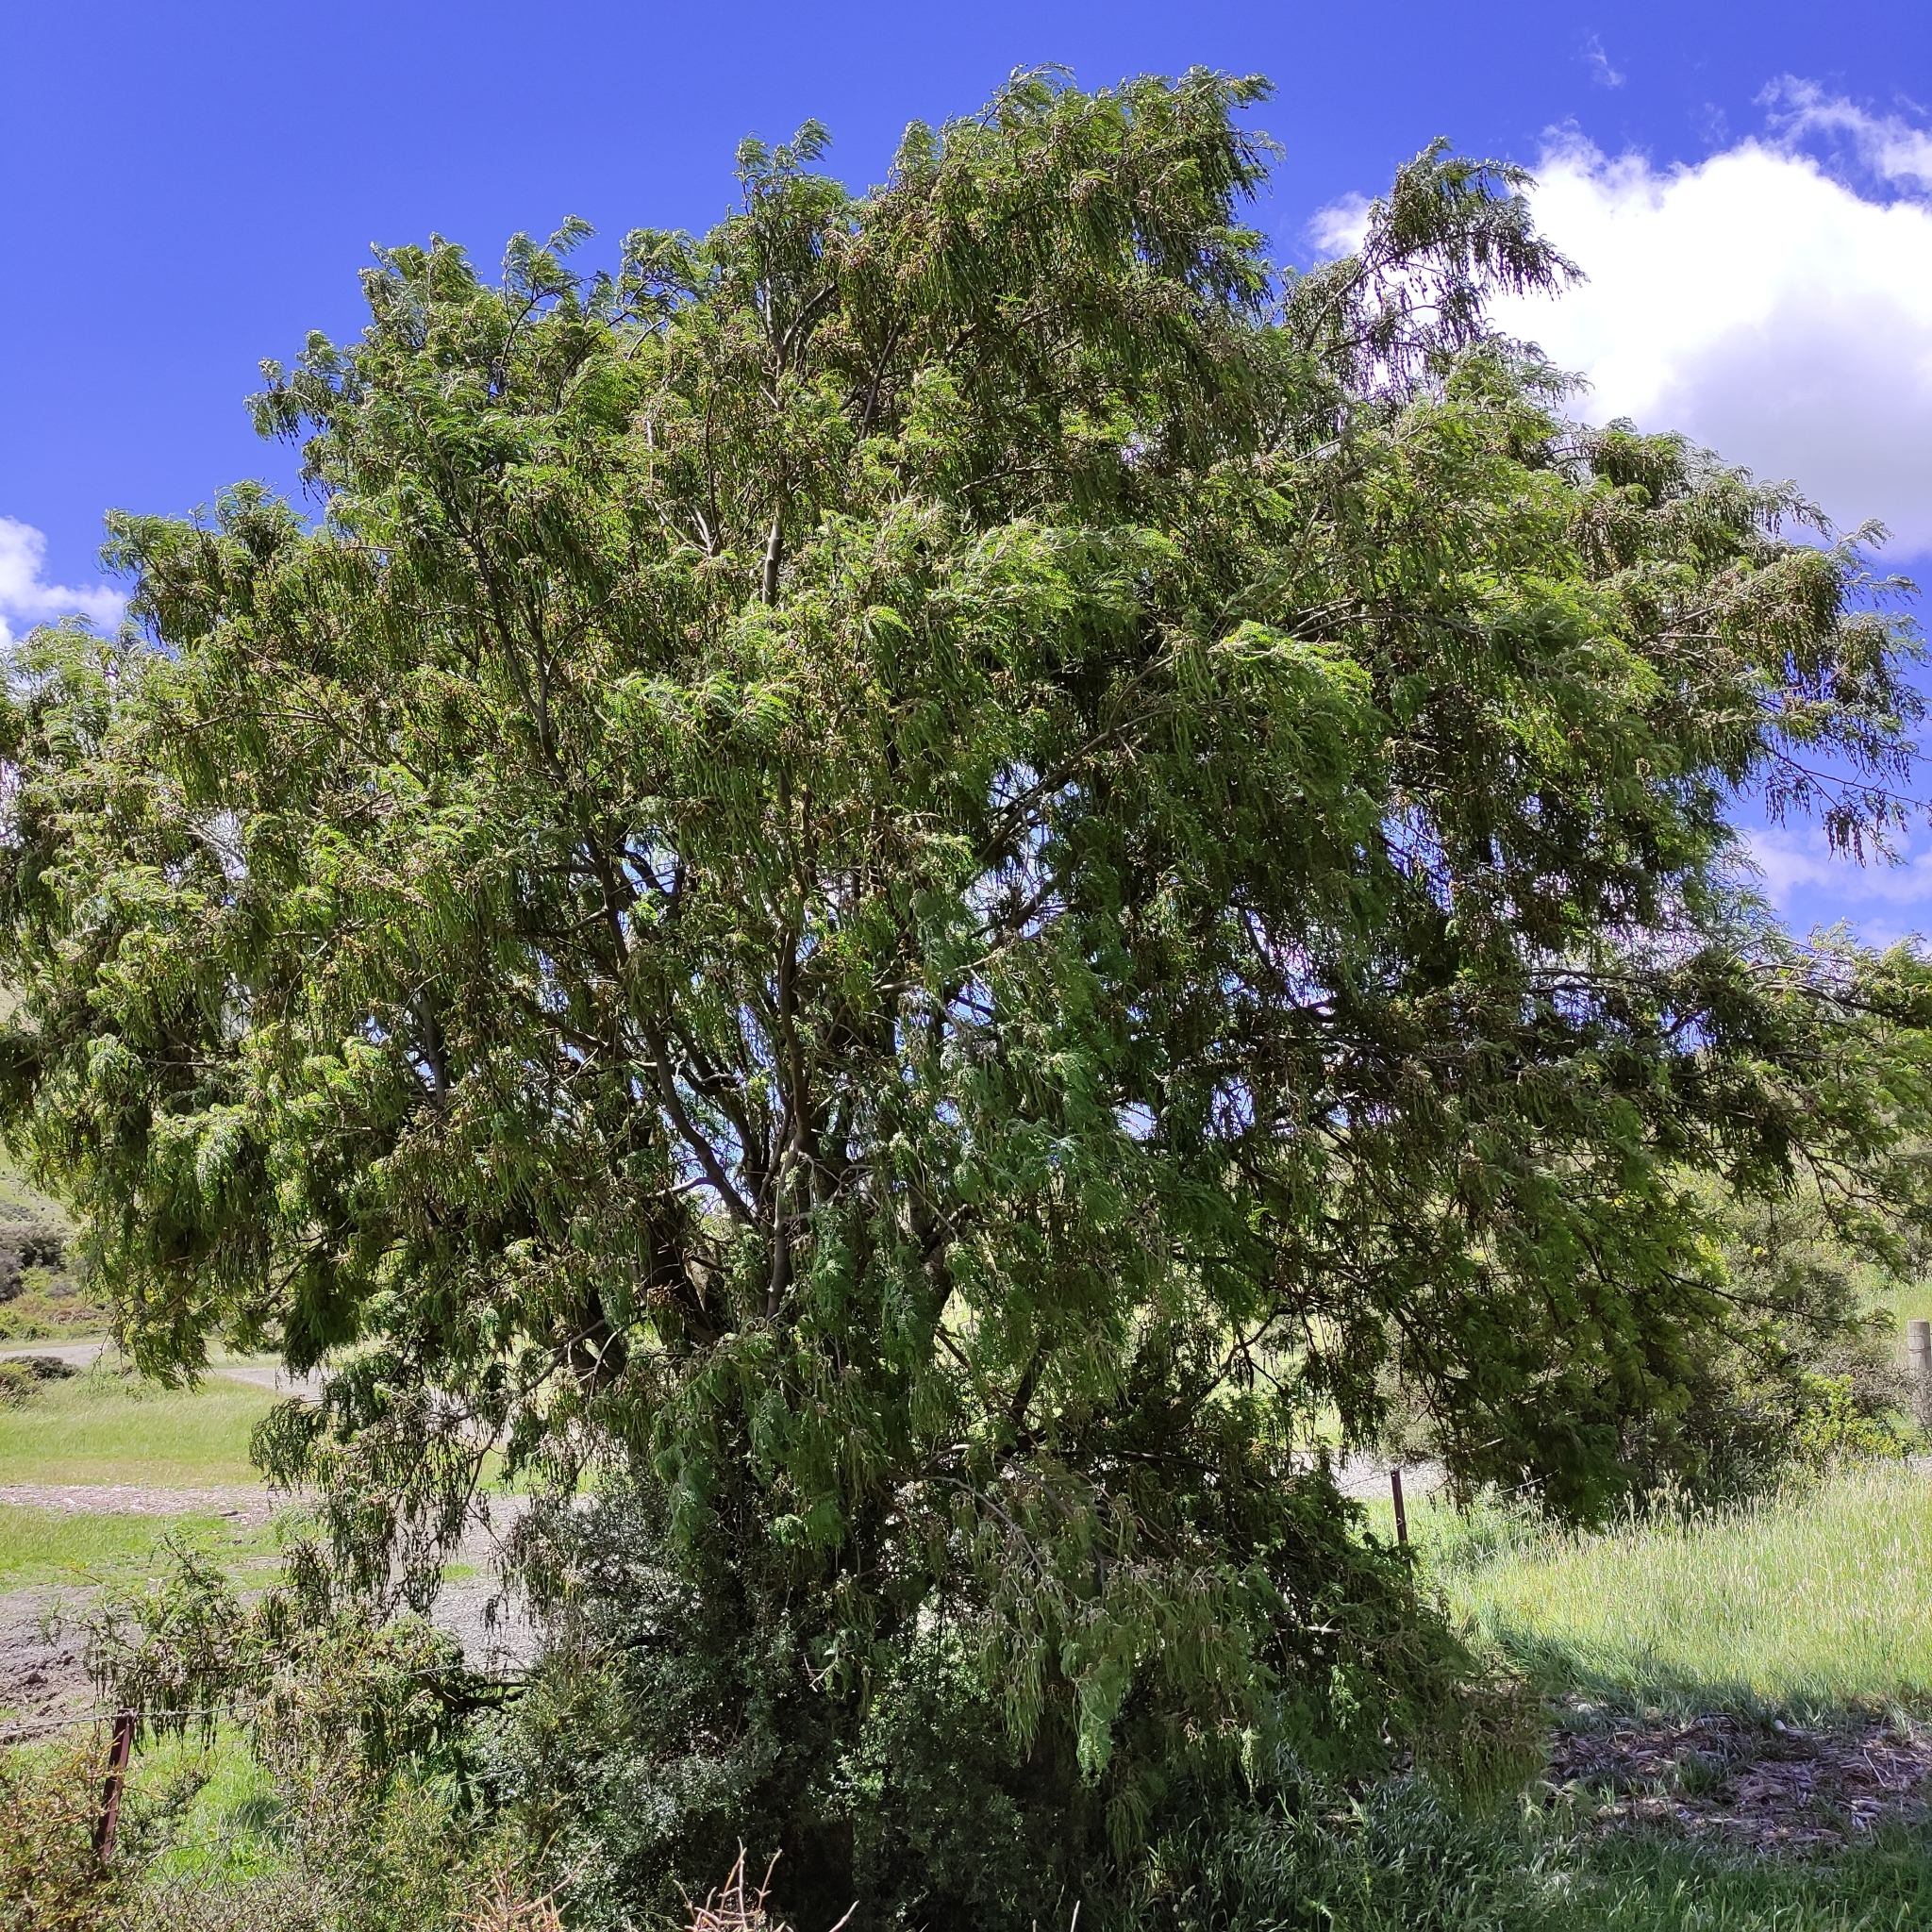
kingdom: Plantae
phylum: Tracheophyta
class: Magnoliopsida
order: Fabales
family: Fabaceae
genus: Sophora
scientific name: Sophora microphylla
